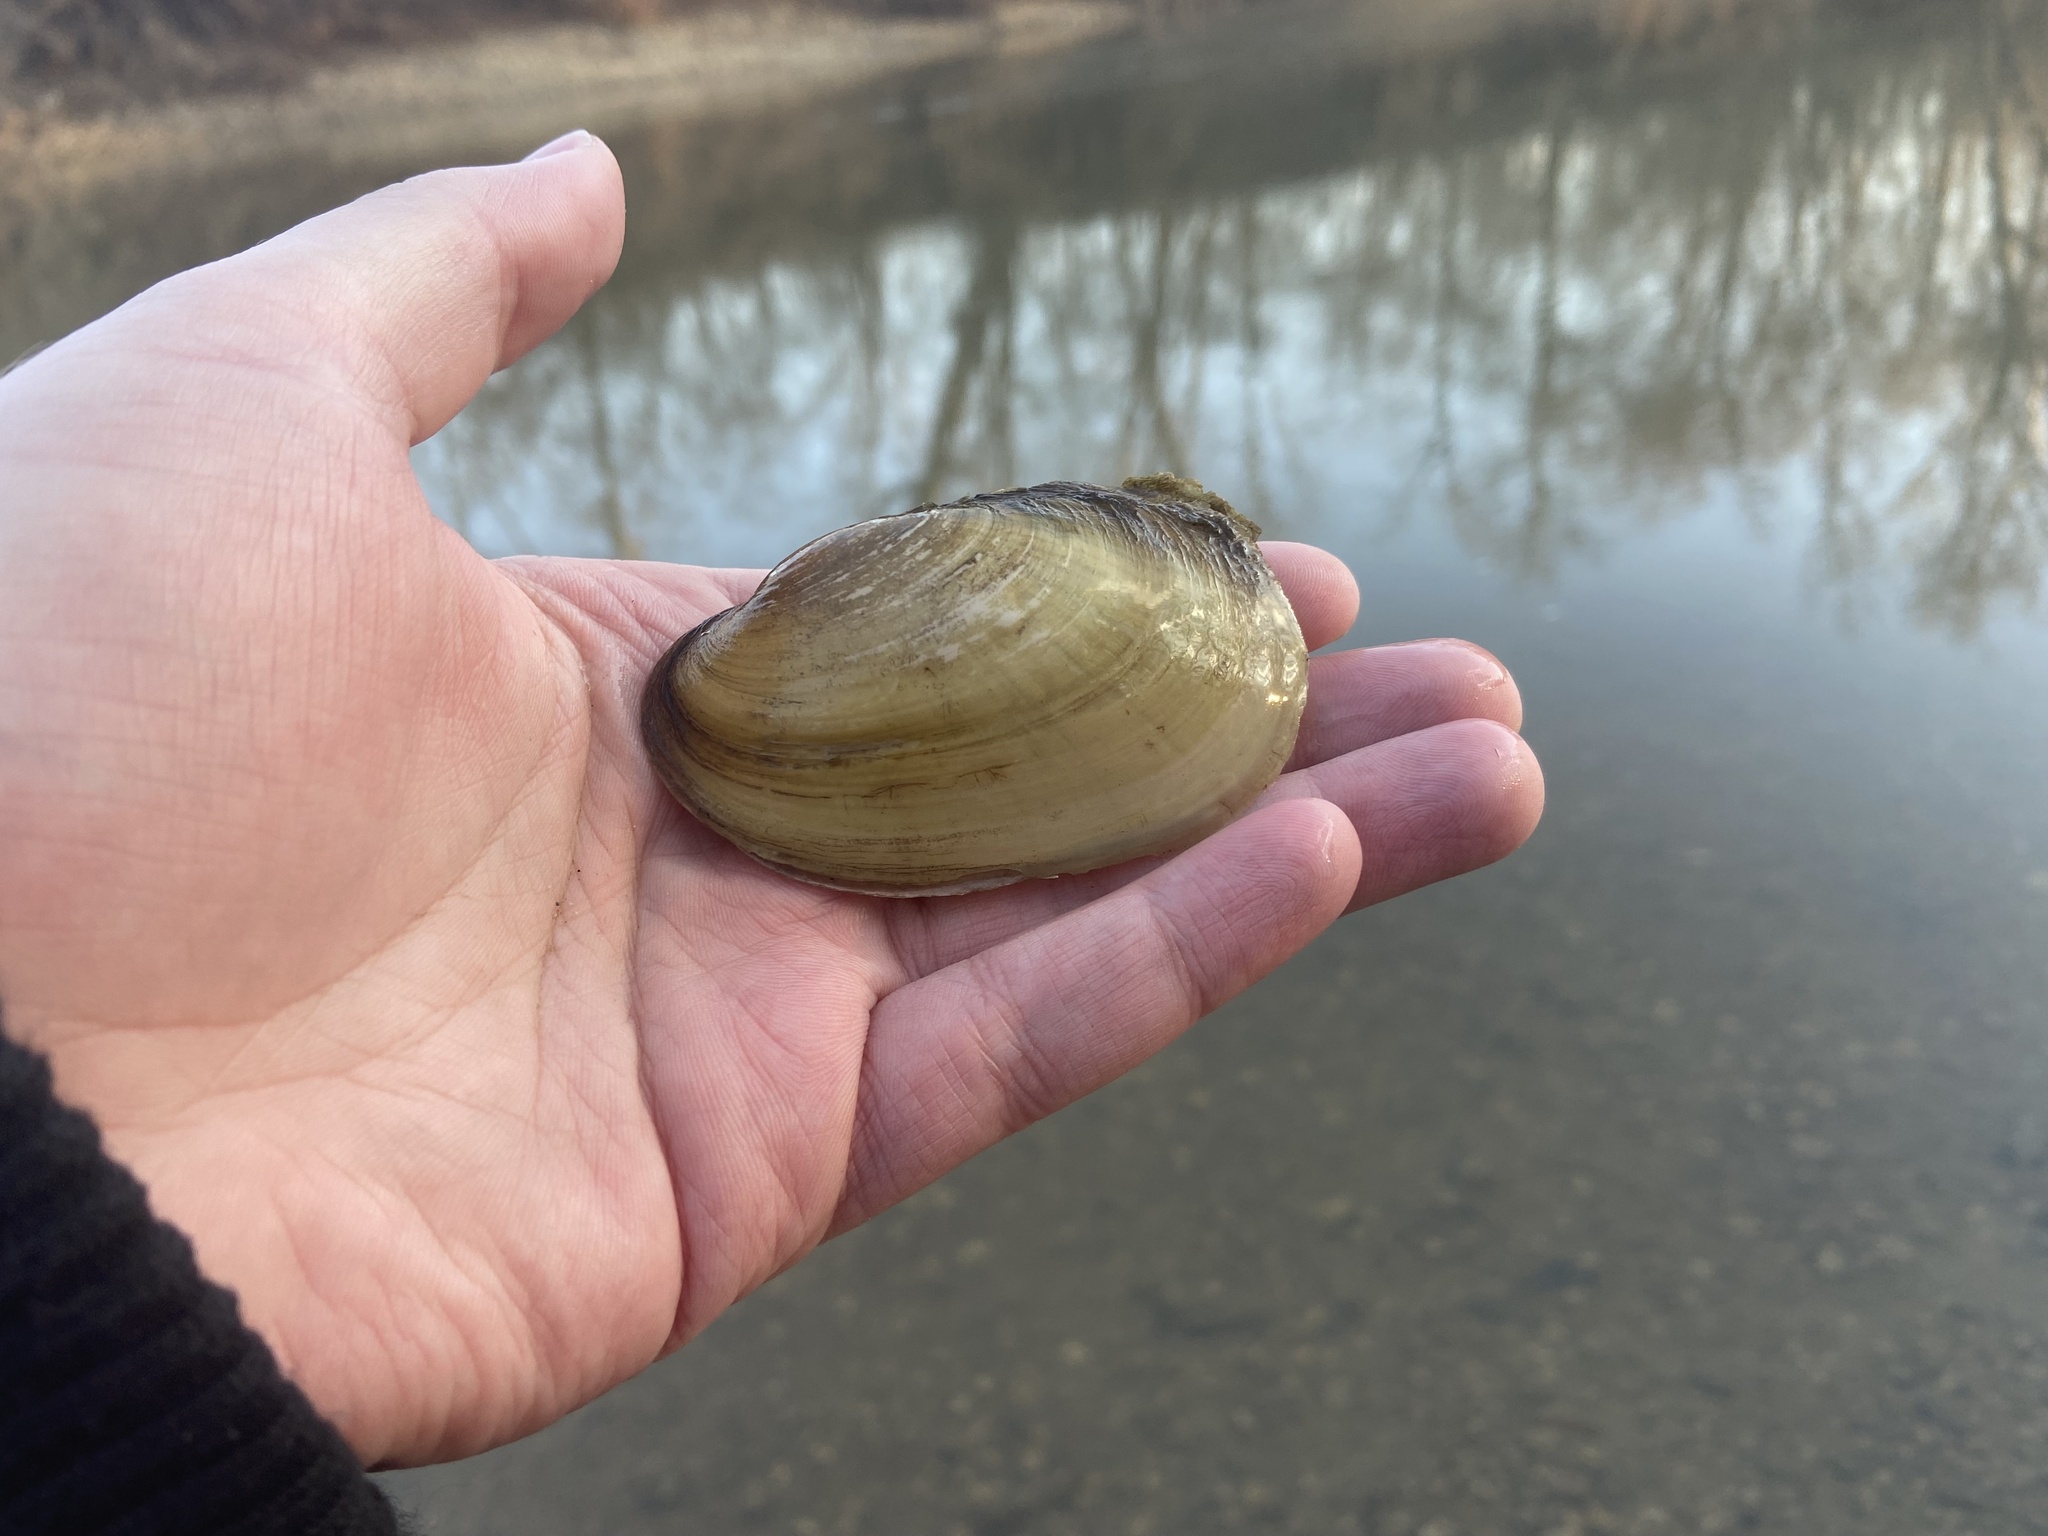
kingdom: Animalia
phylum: Mollusca
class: Bivalvia
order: Unionida
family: Unionidae
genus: Potamilus
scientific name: Potamilus fragilis
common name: Fragile papershell
